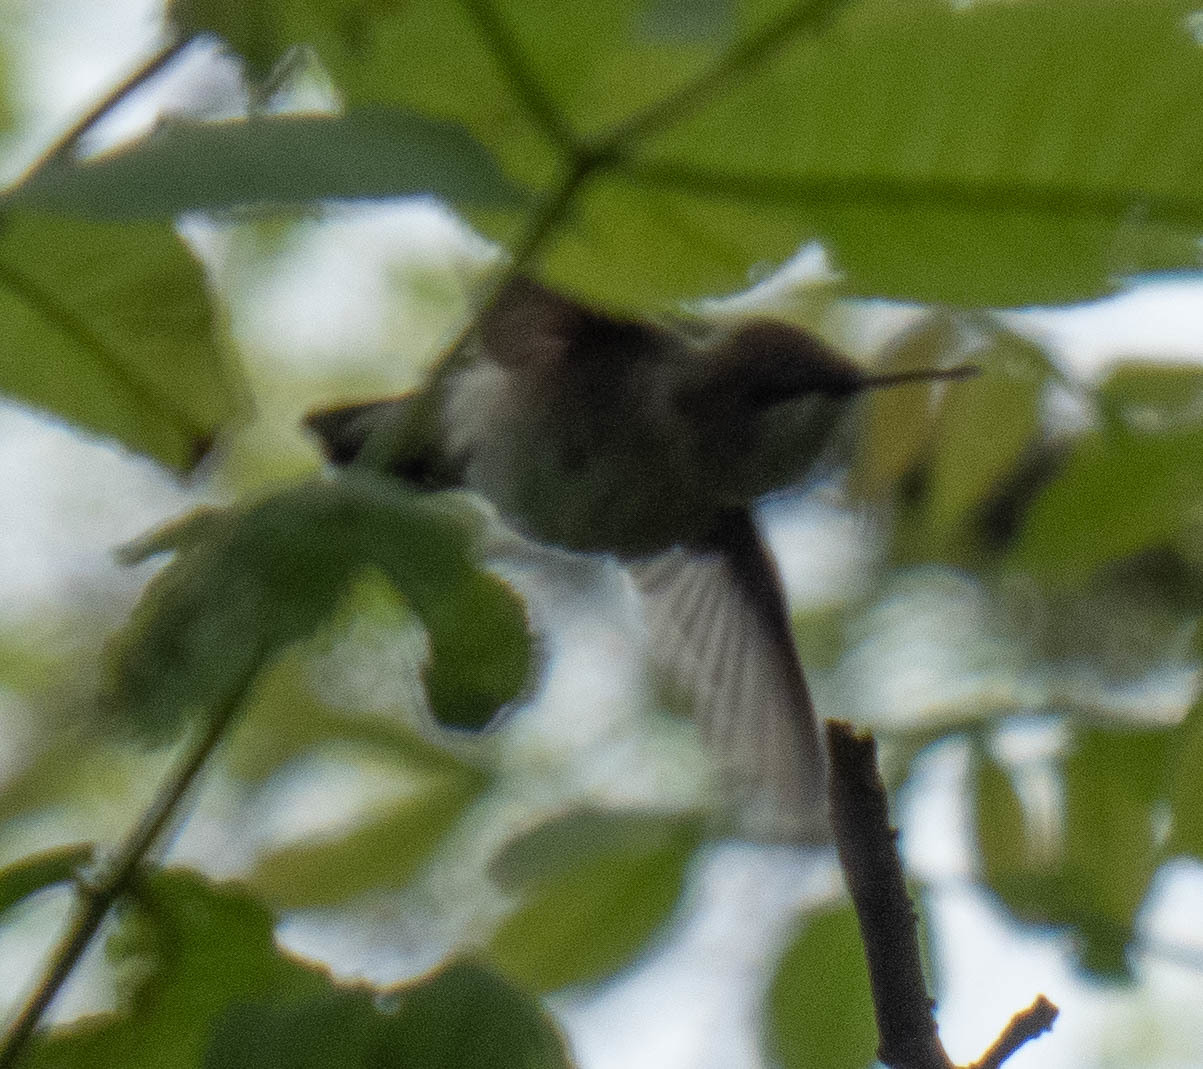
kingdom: Animalia
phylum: Chordata
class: Aves
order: Apodiformes
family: Trochilidae
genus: Archilochus
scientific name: Archilochus colubris
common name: Ruby-throated hummingbird
